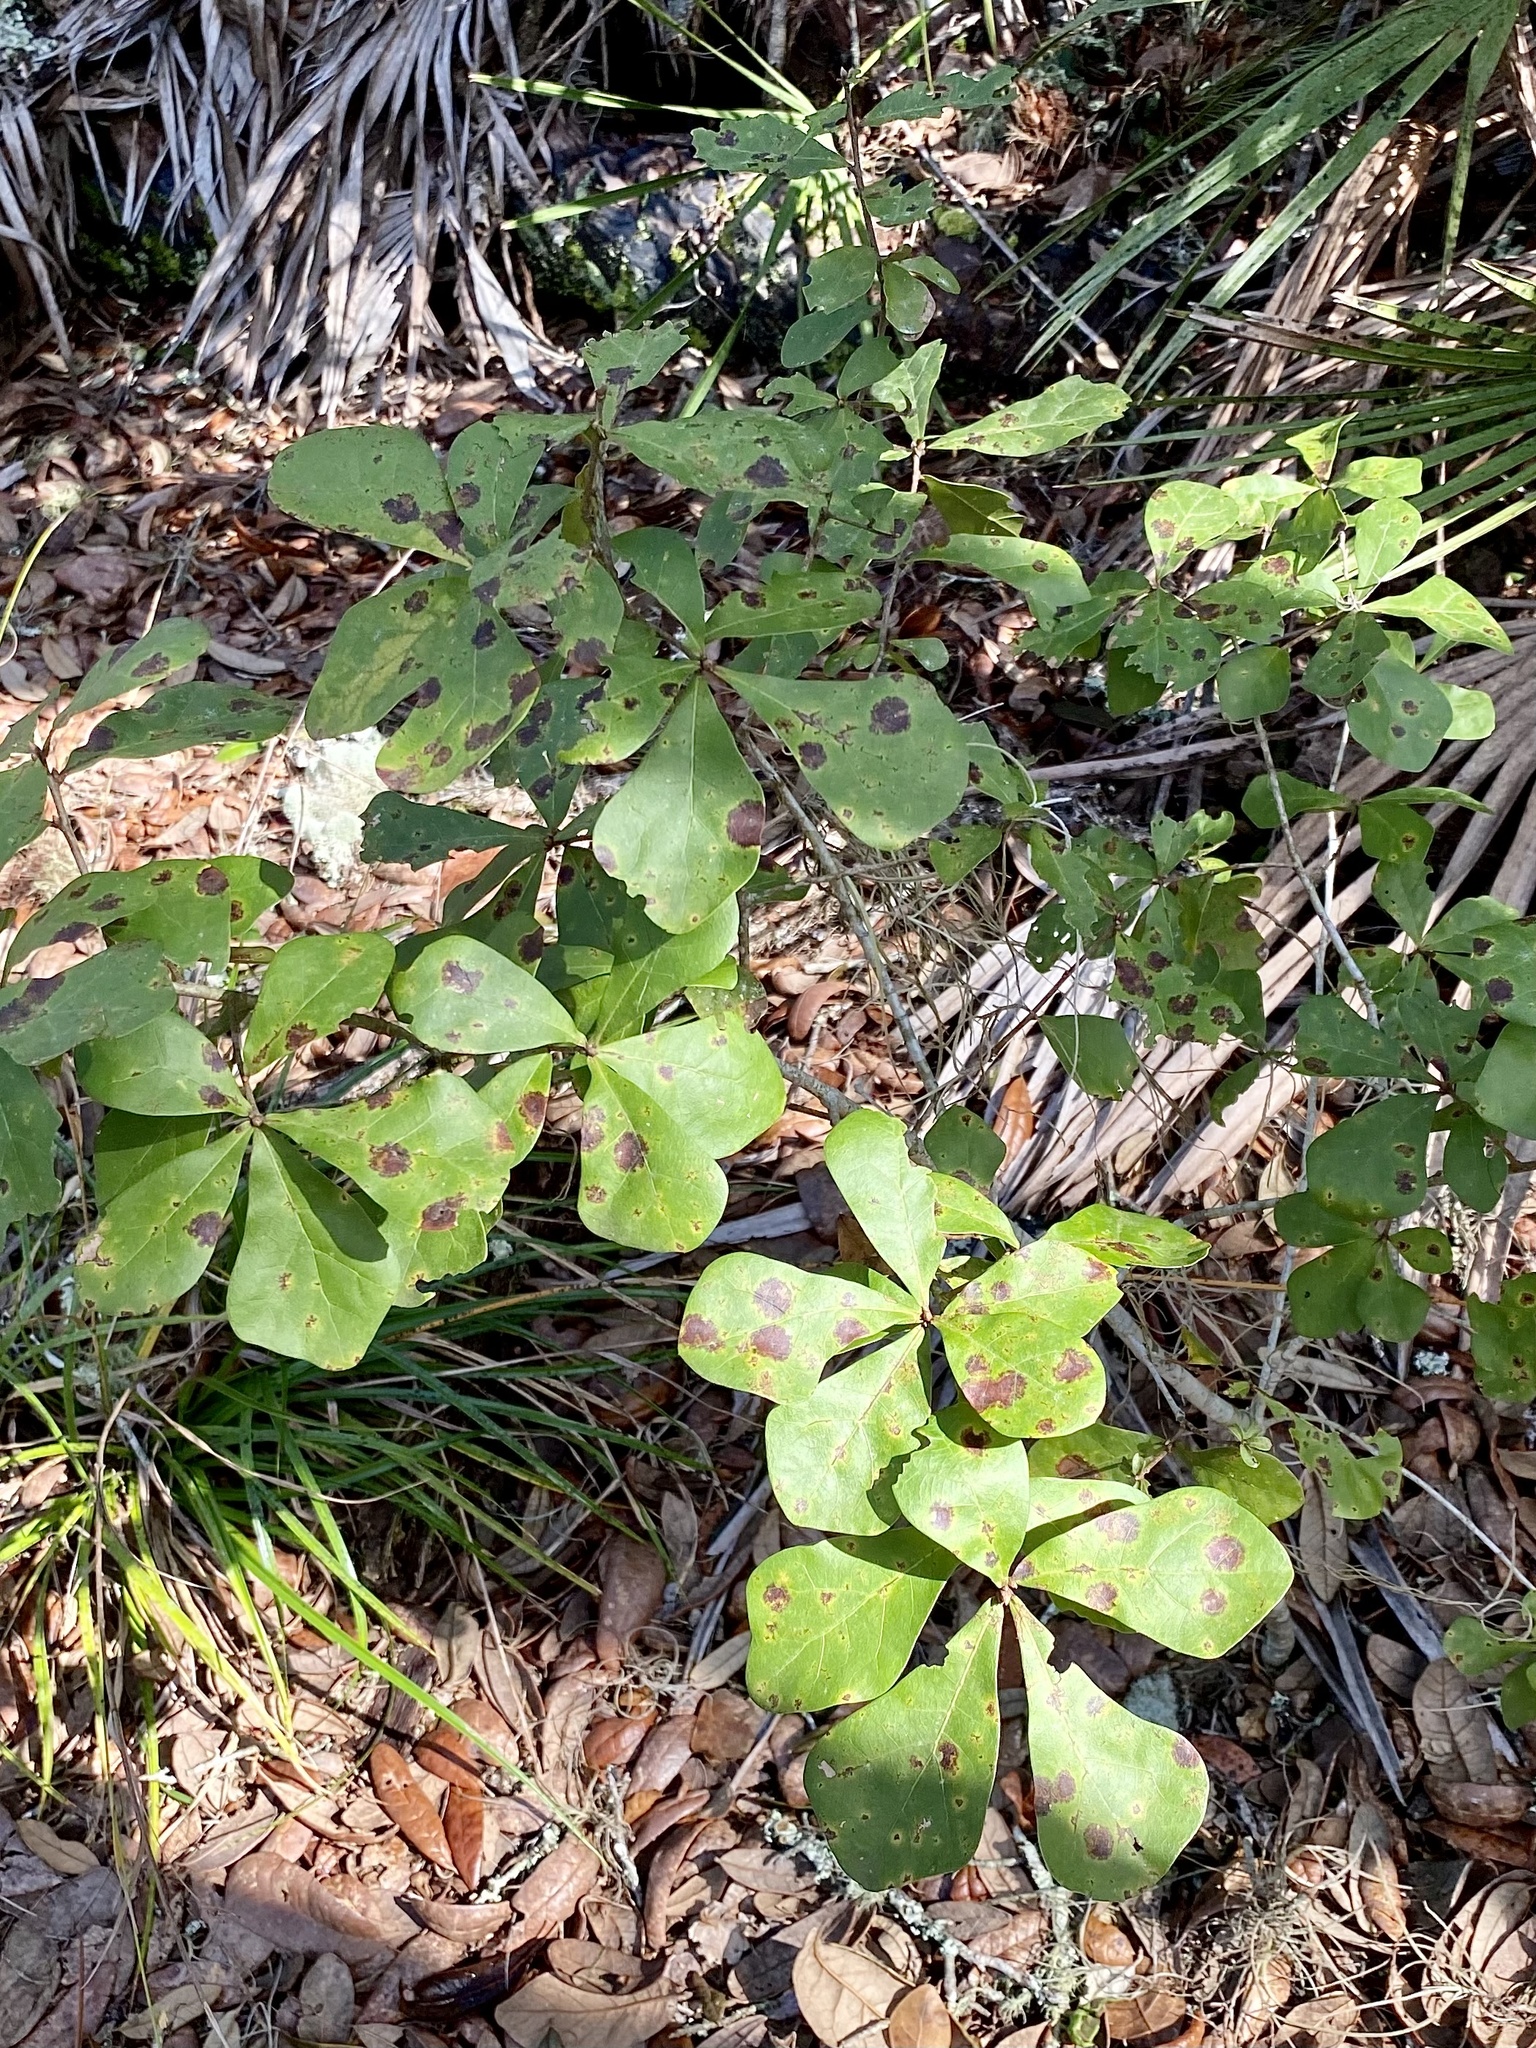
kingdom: Plantae
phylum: Tracheophyta
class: Magnoliopsida
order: Fagales
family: Fagaceae
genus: Quercus
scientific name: Quercus nigra
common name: Water oak
